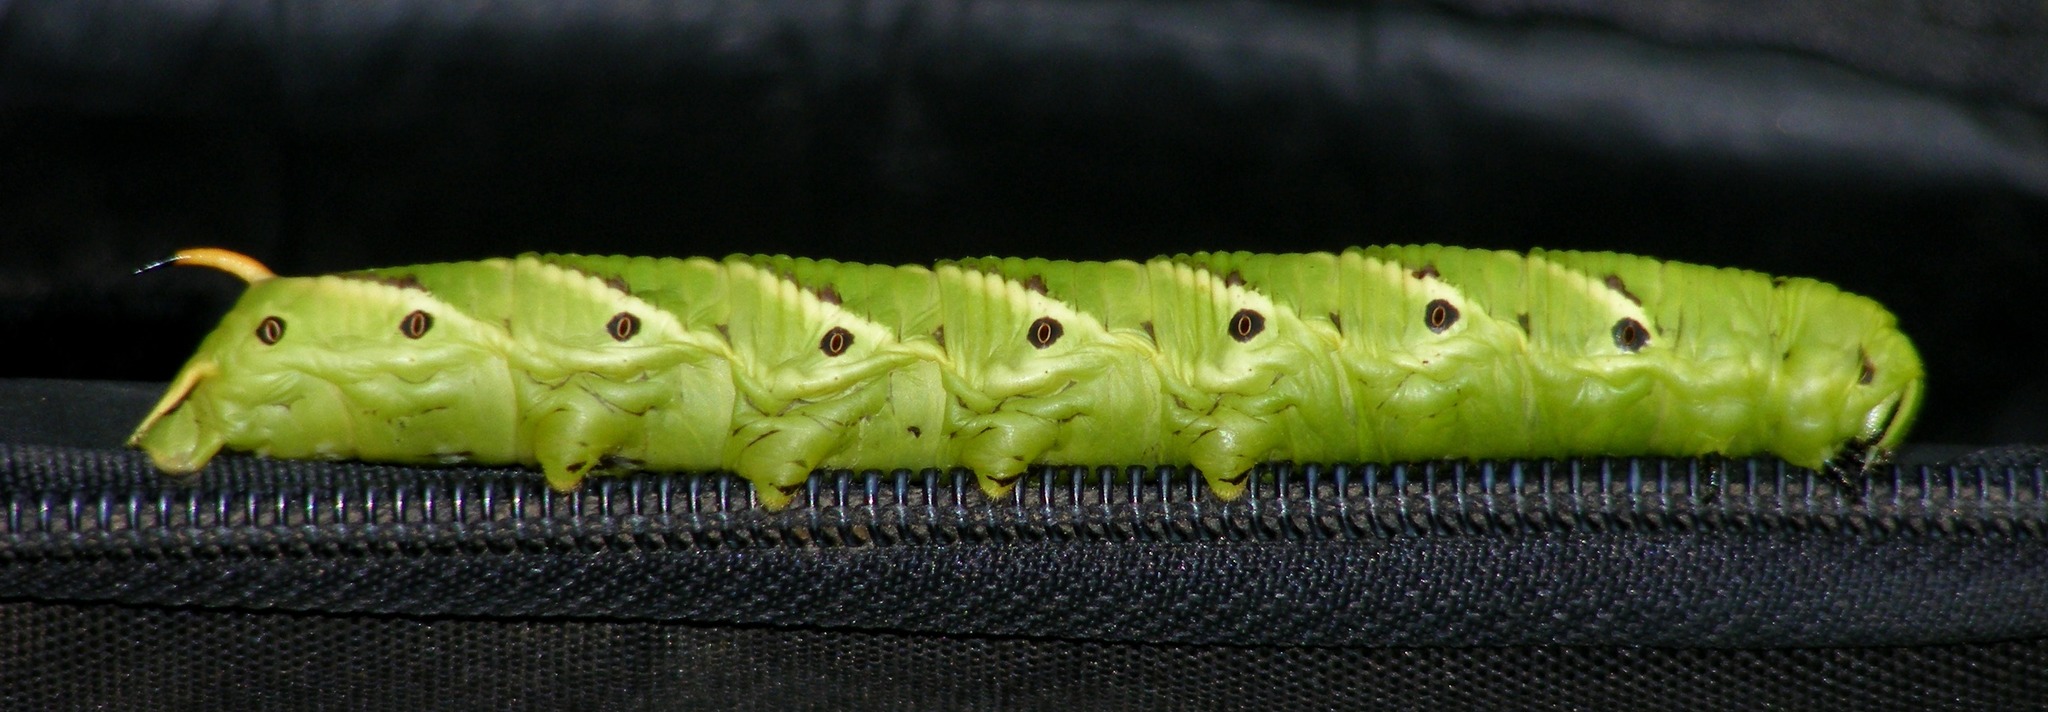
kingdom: Animalia
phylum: Arthropoda
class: Insecta
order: Lepidoptera
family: Sphingidae
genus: Agrius
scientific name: Agrius convolvuli
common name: Convolvulus hawkmoth
